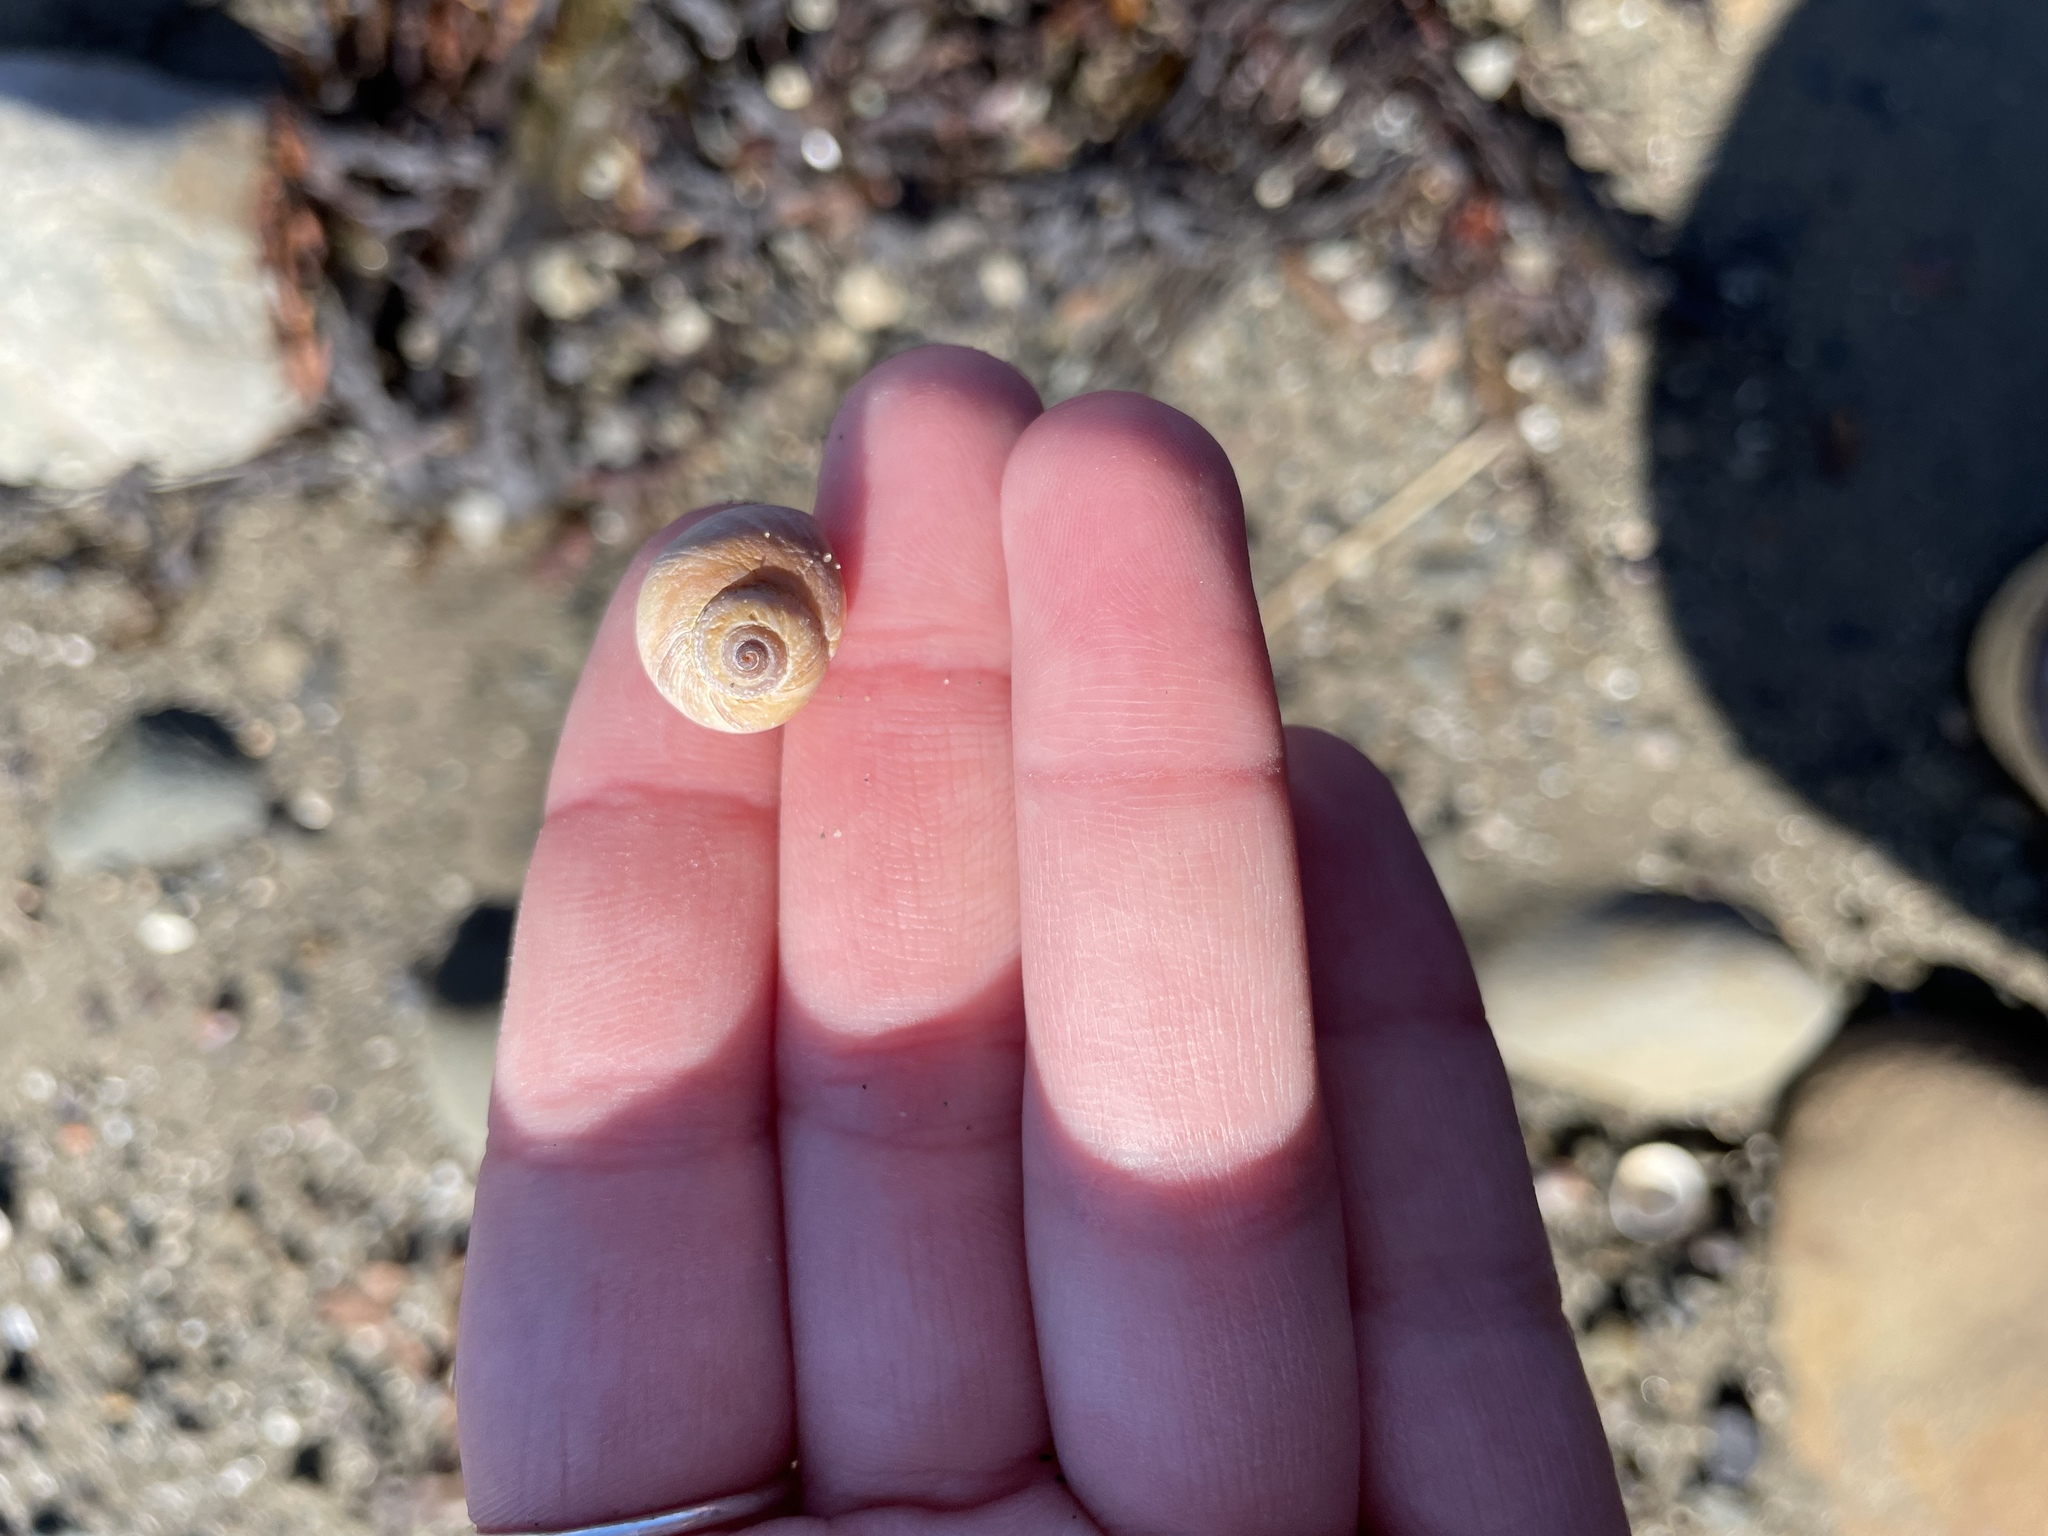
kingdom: Animalia
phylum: Mollusca
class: Gastropoda
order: Littorinimorpha
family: Naticidae
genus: Euspira
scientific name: Euspira heros
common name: Common northern moonsnail
